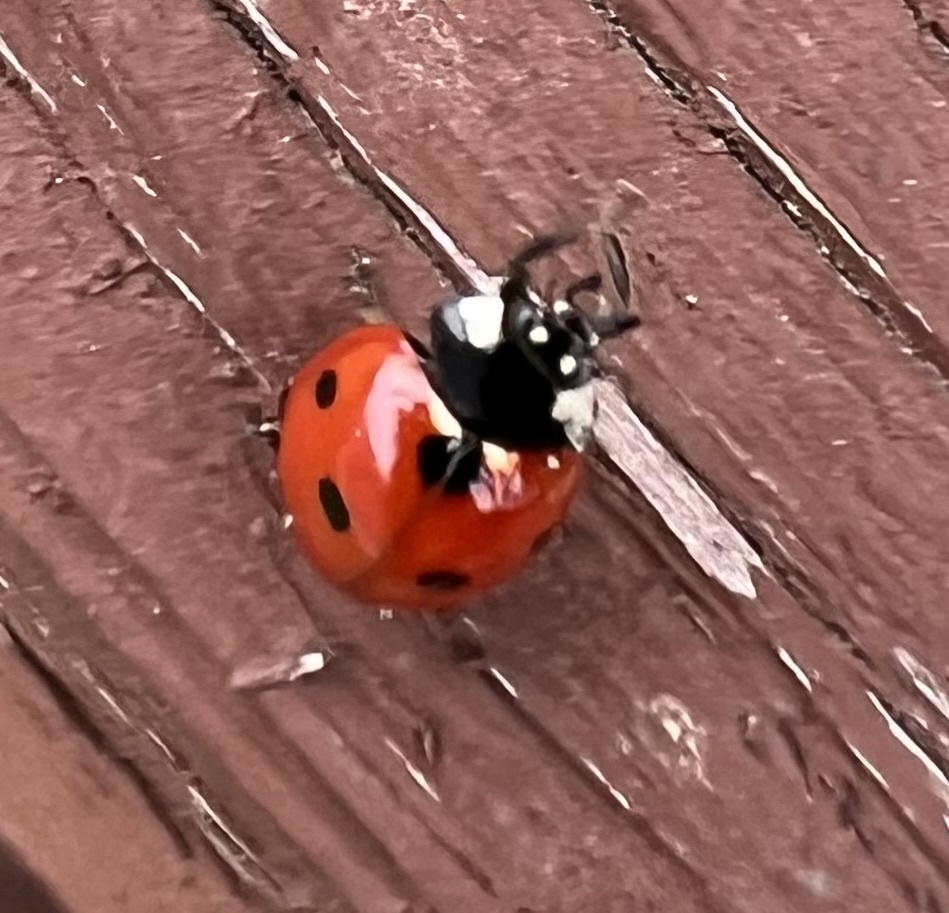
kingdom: Animalia
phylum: Arthropoda
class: Insecta
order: Coleoptera
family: Coccinellidae
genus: Coccinella
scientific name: Coccinella septempunctata
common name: Sevenspotted lady beetle
